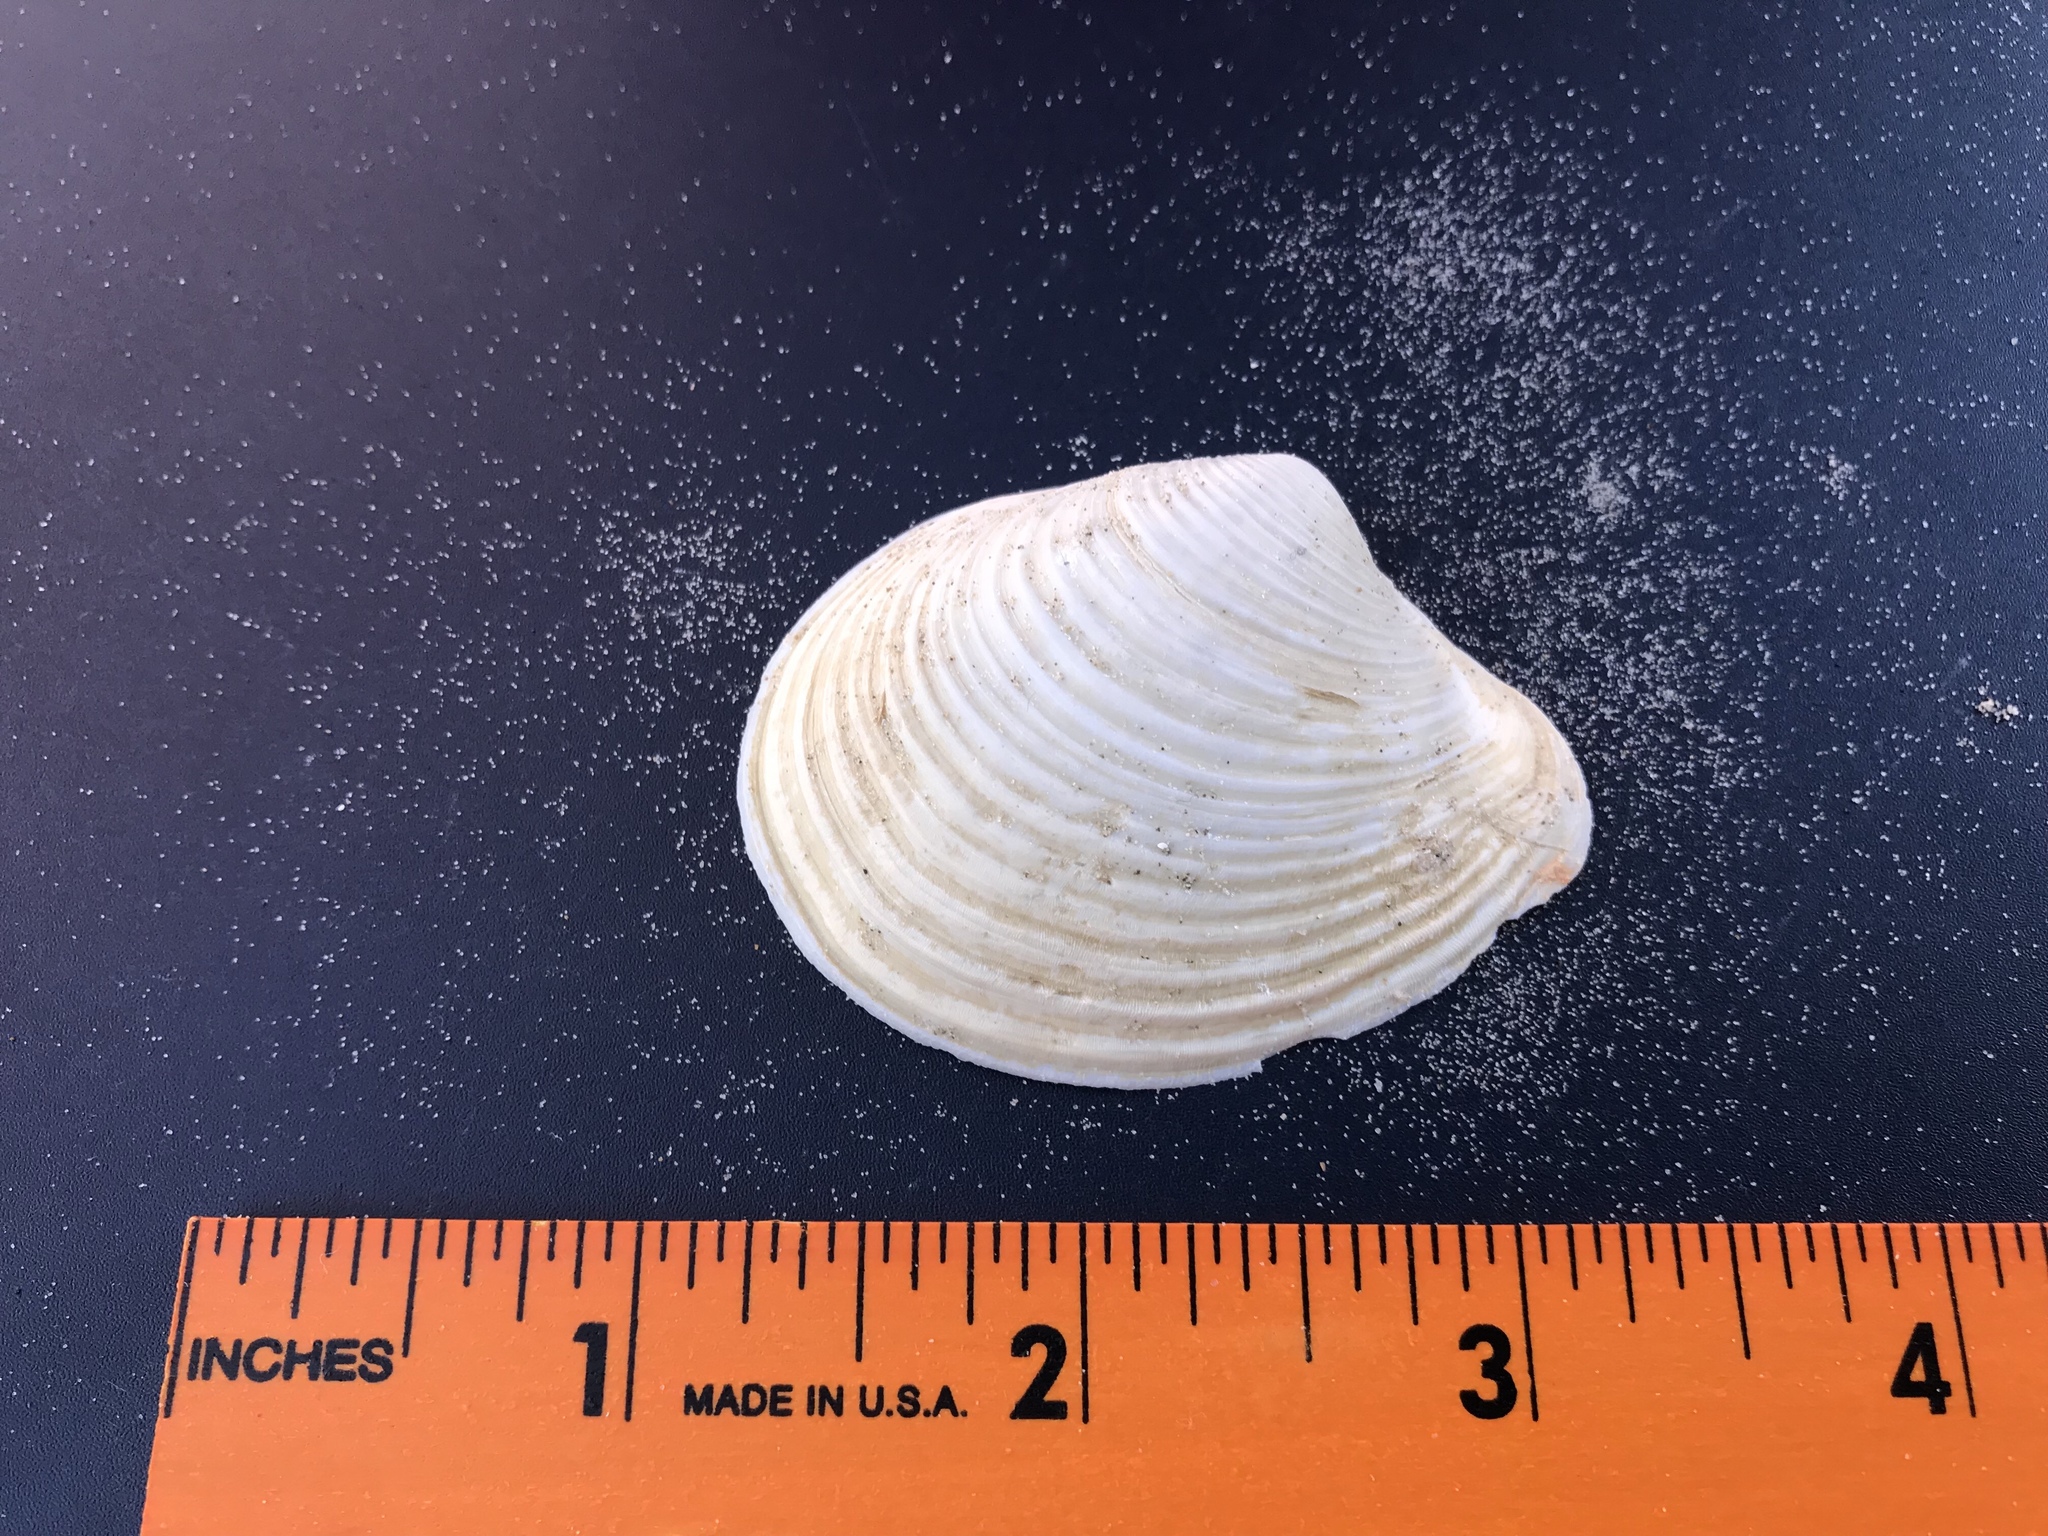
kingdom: Animalia
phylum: Mollusca
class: Bivalvia
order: Venerida
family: Anatinellidae
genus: Raeta
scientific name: Raeta plicatella
